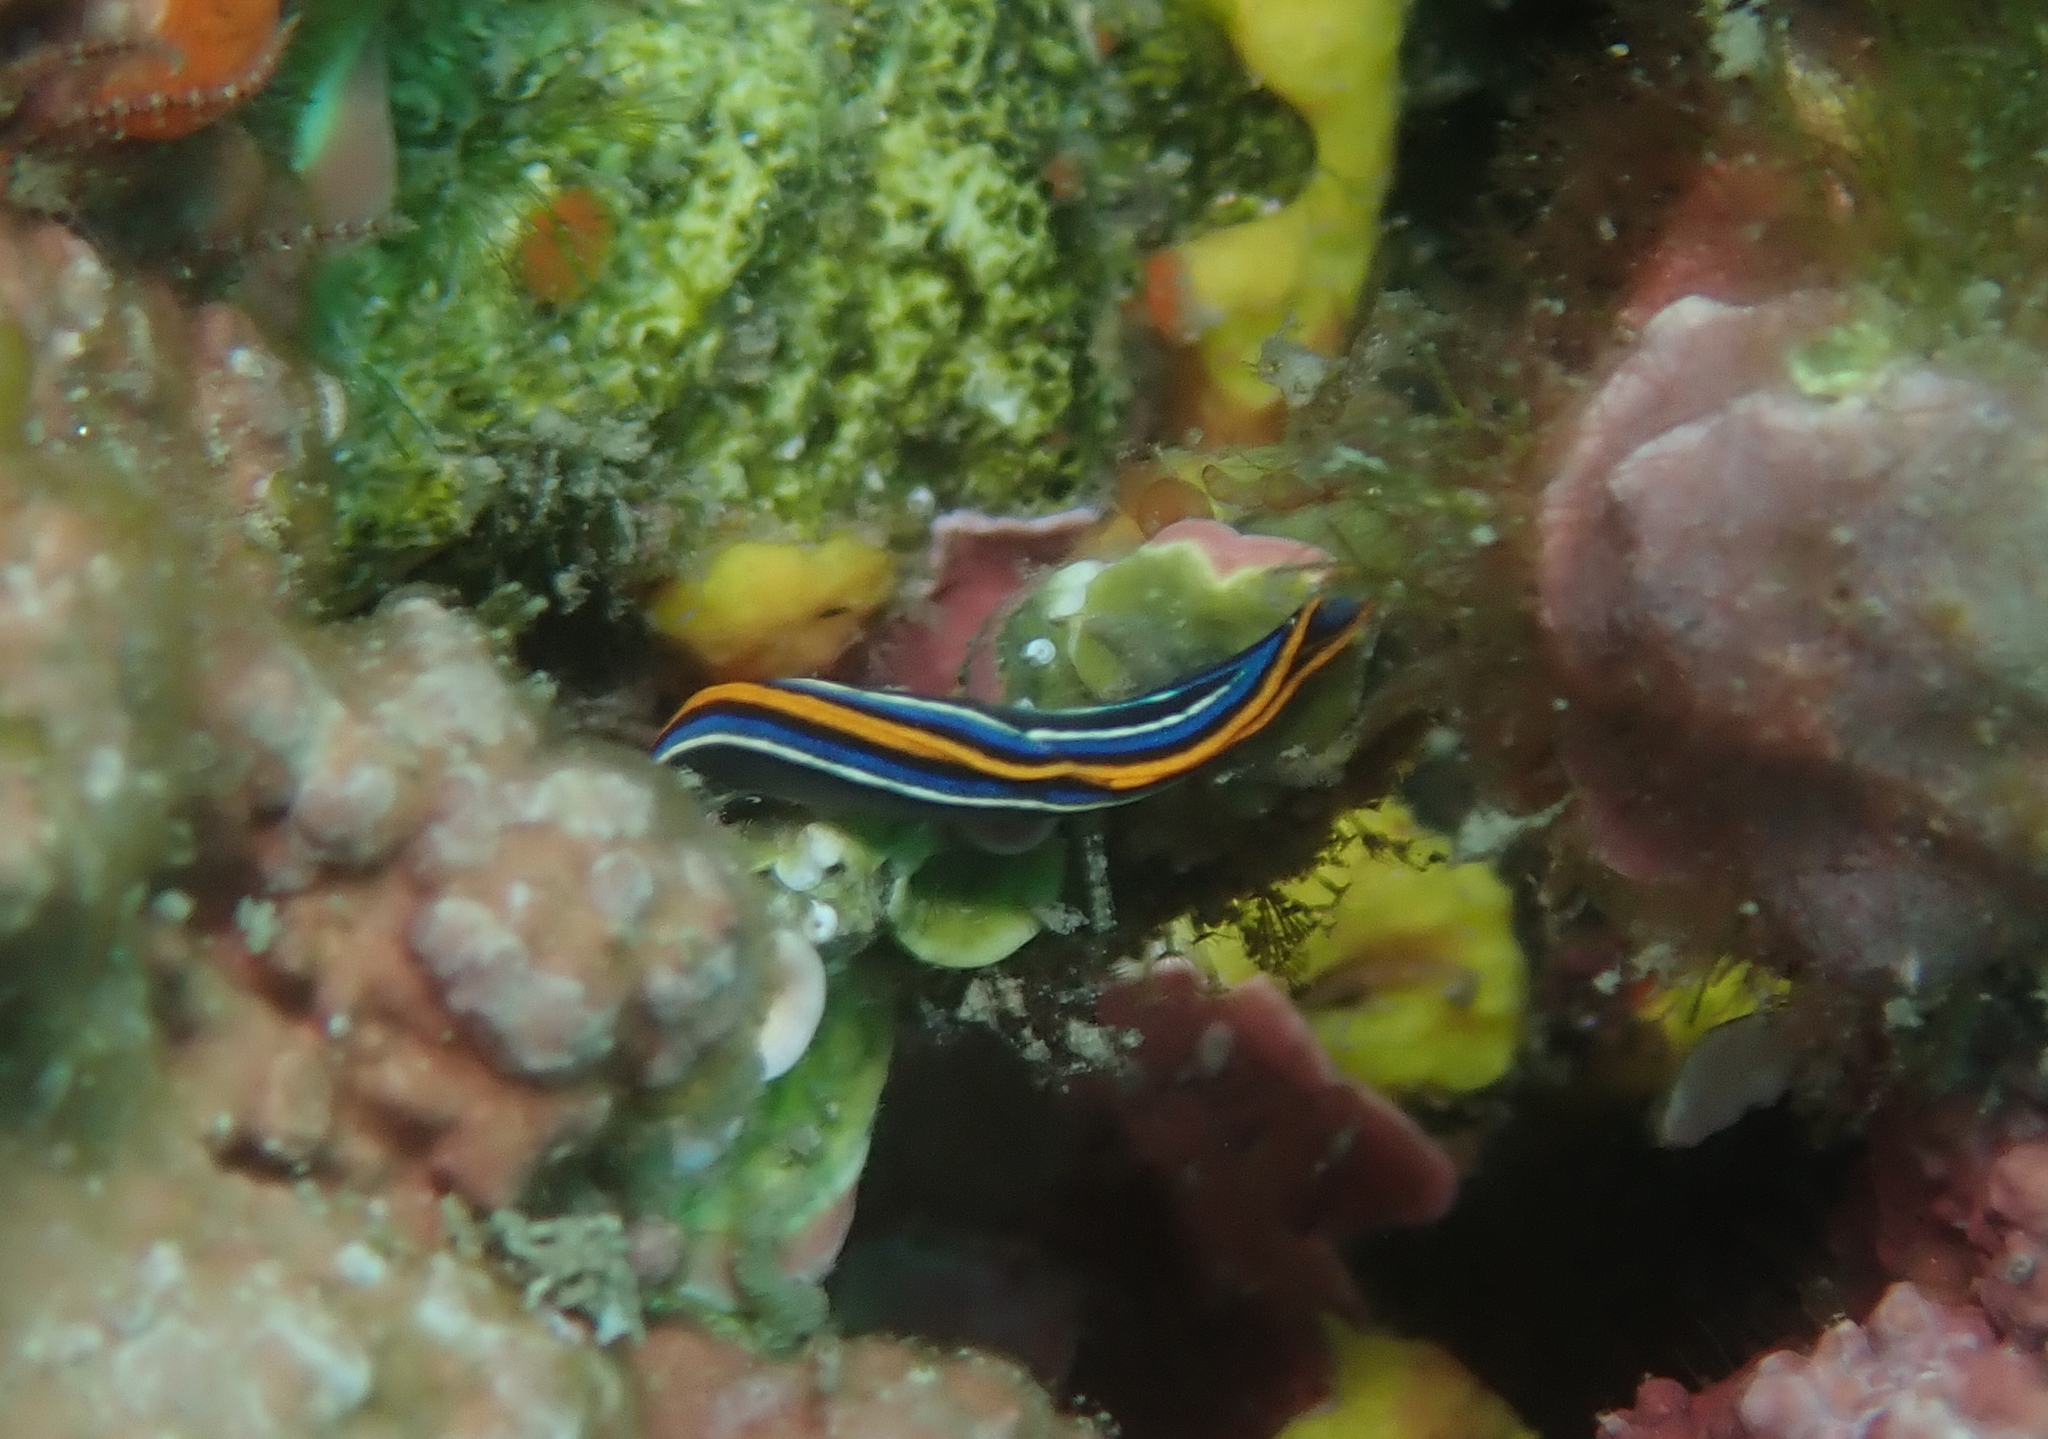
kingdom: Animalia
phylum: Mollusca
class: Gastropoda
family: Plakobranchidae
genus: Thuridilla
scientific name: Thuridilla hopei
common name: Splendid elysia
